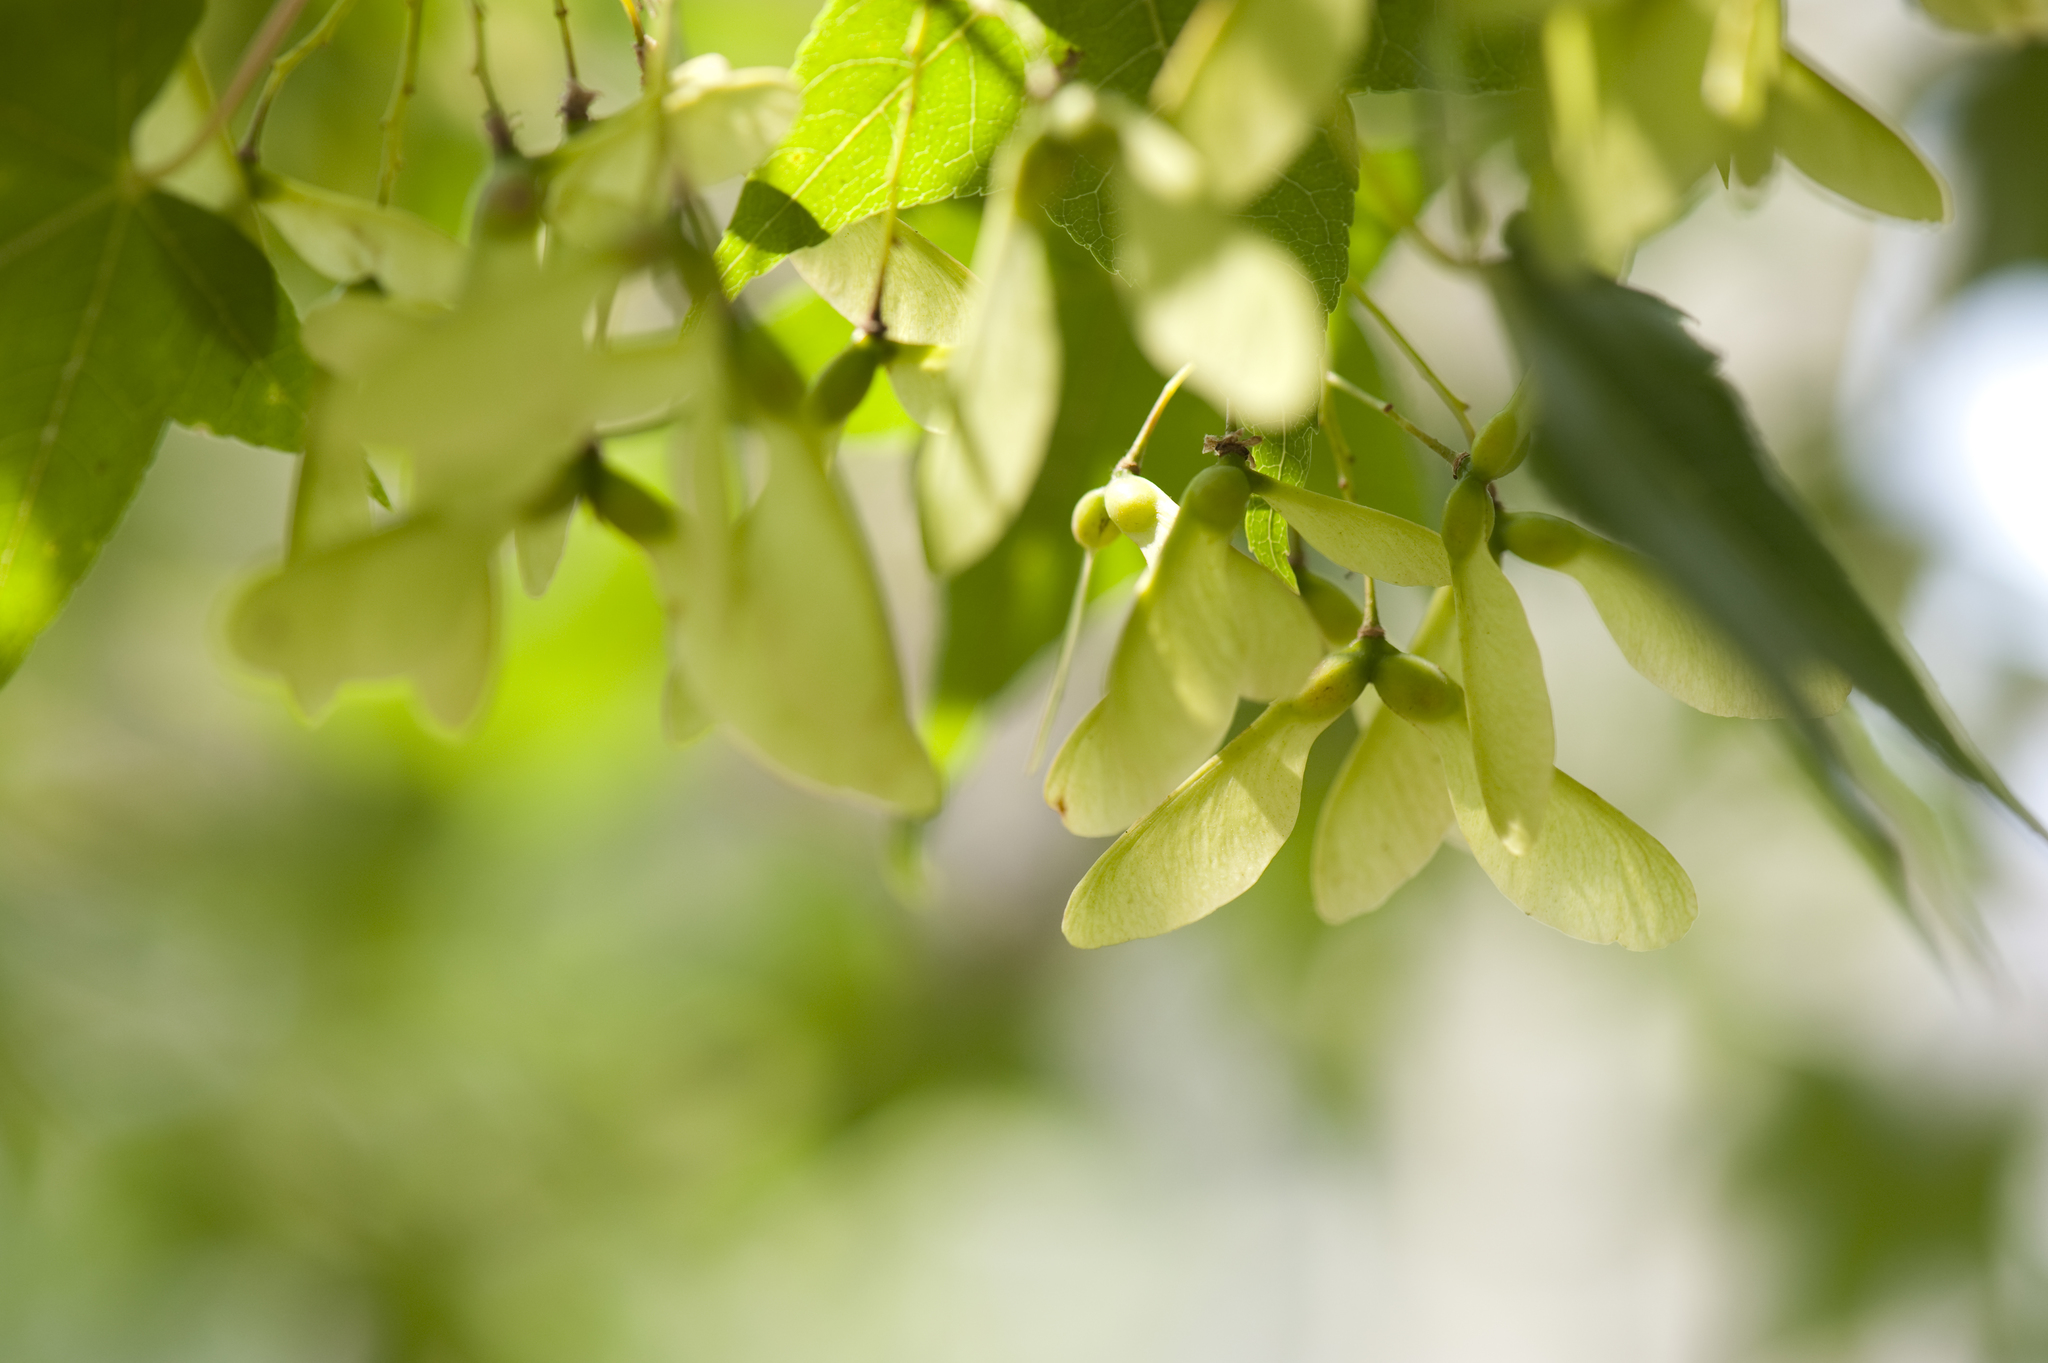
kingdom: Plantae
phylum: Tracheophyta
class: Magnoliopsida
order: Sapindales
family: Sapindaceae
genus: Acer
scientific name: Acer serrulatum
